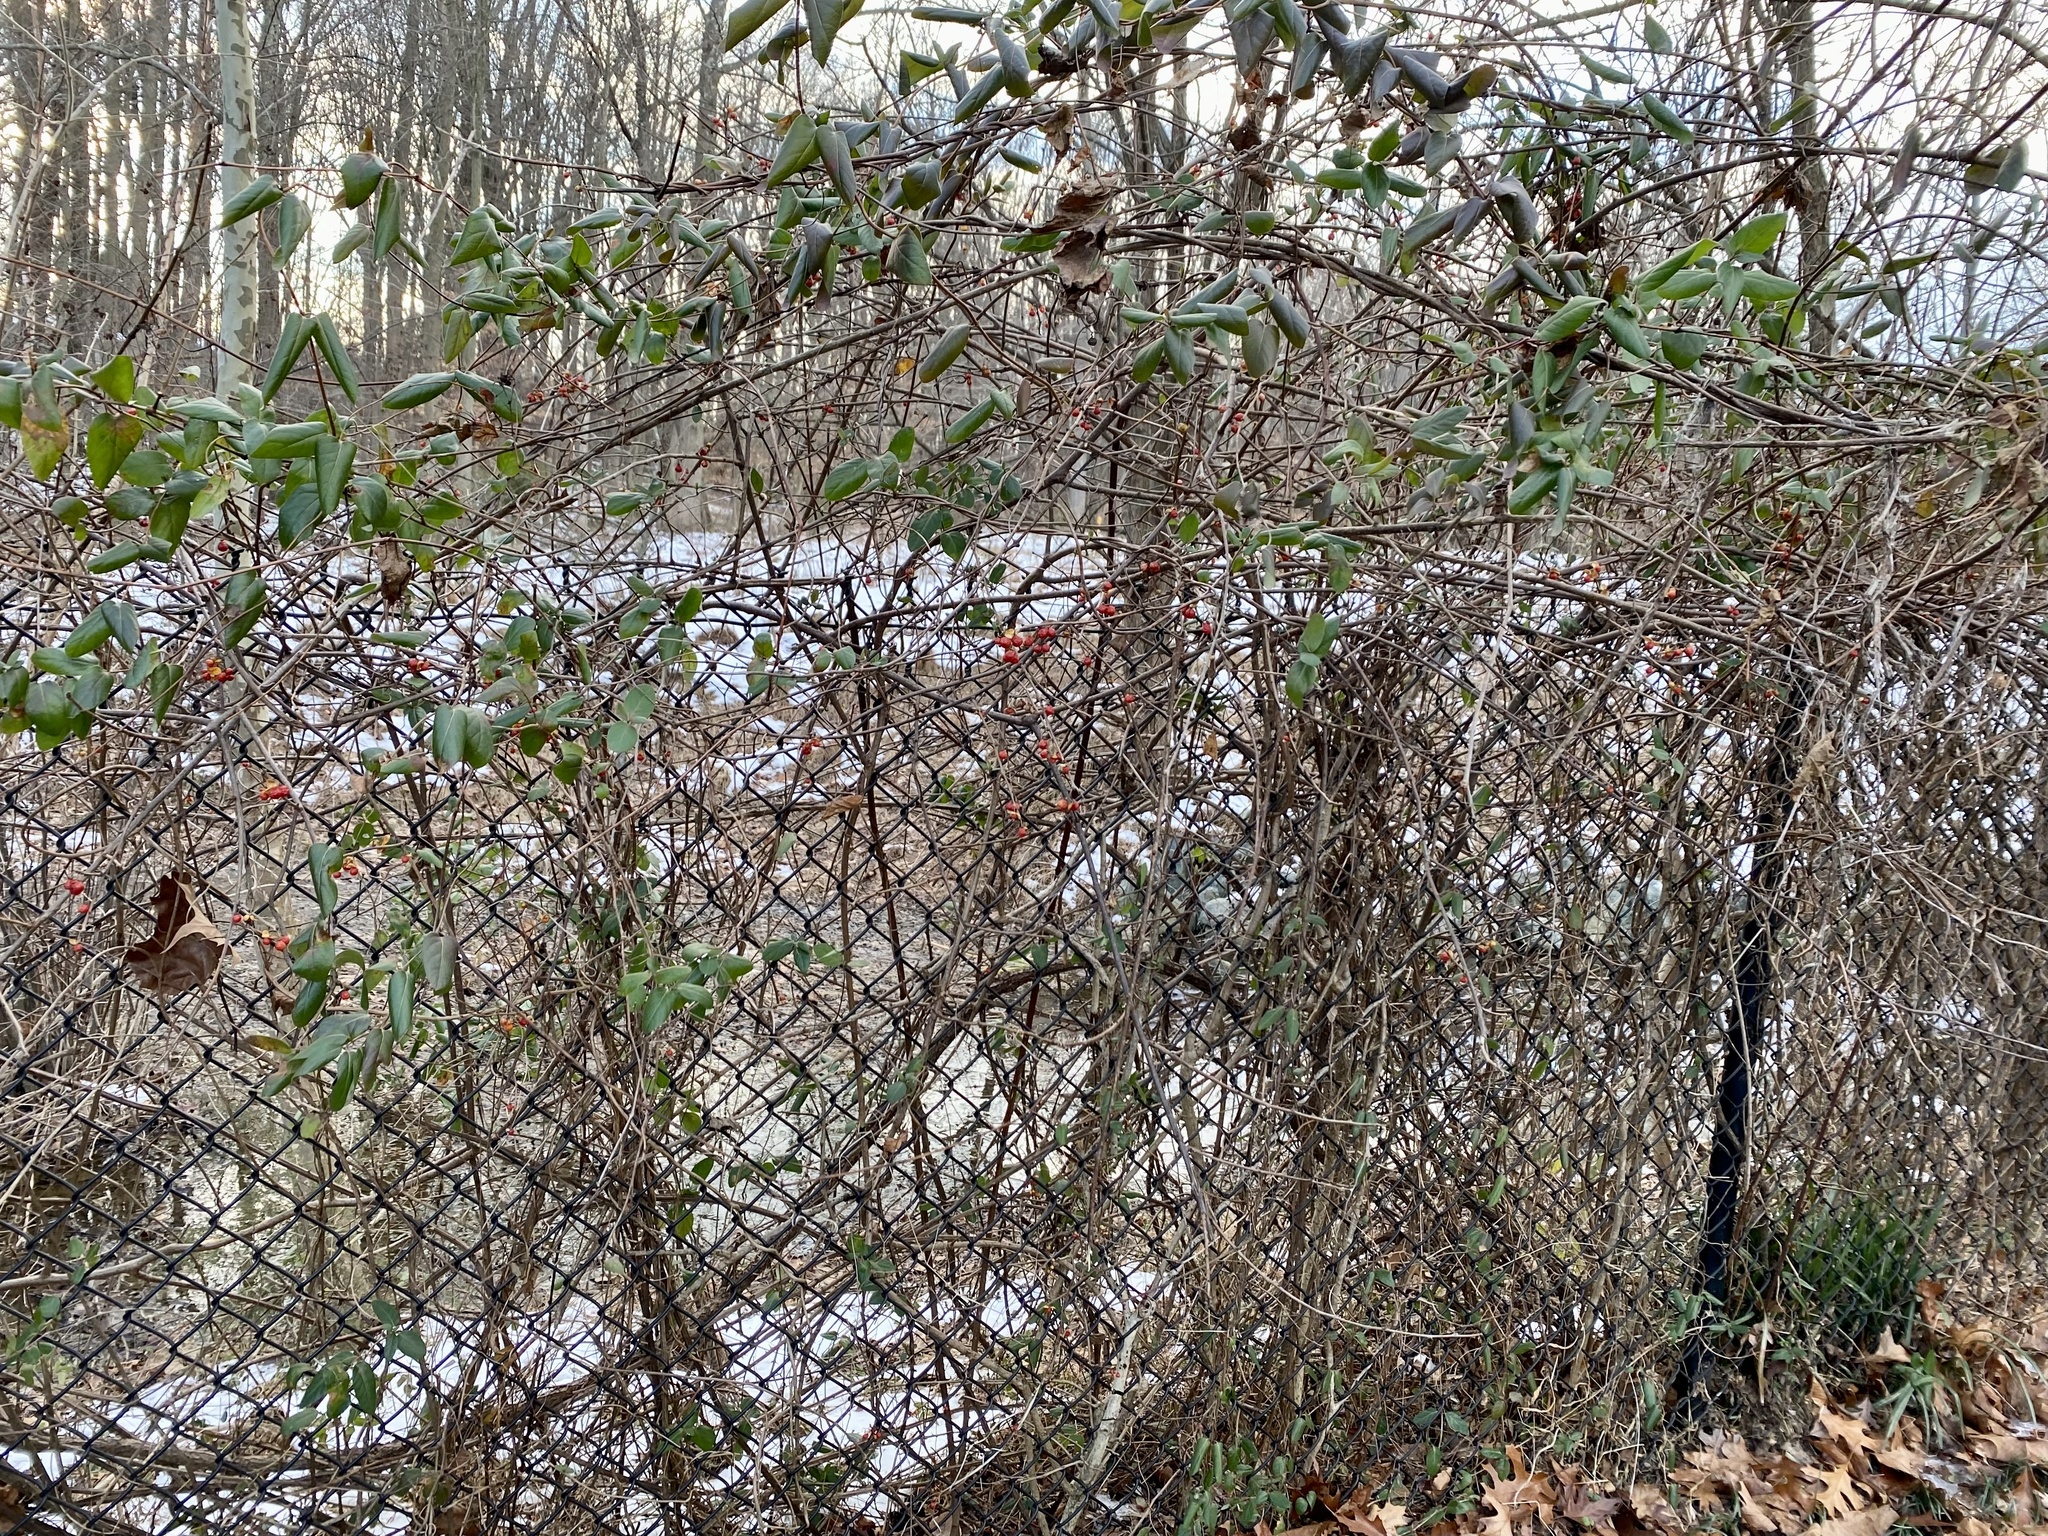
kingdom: Plantae
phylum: Tracheophyta
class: Magnoliopsida
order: Dipsacales
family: Caprifoliaceae
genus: Lonicera
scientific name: Lonicera japonica
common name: Japanese honeysuckle
